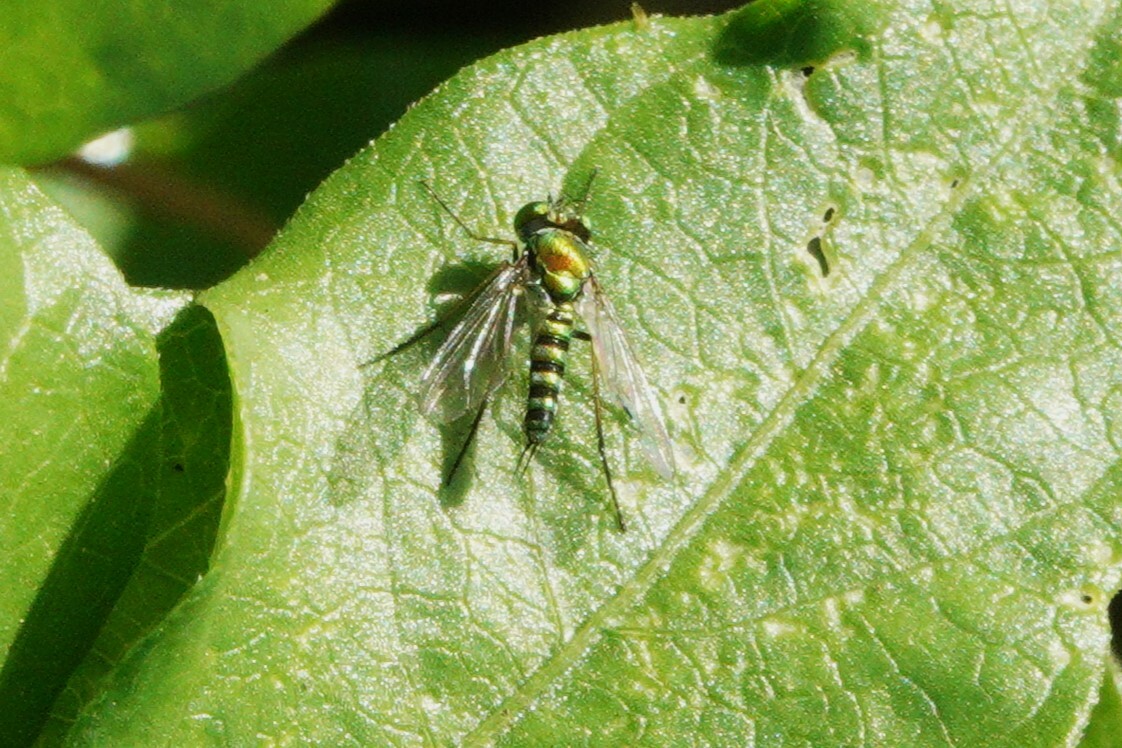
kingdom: Animalia
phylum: Arthropoda
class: Insecta
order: Diptera
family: Dolichopodidae
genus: Condylostylus
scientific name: Condylostylus graenicheri
